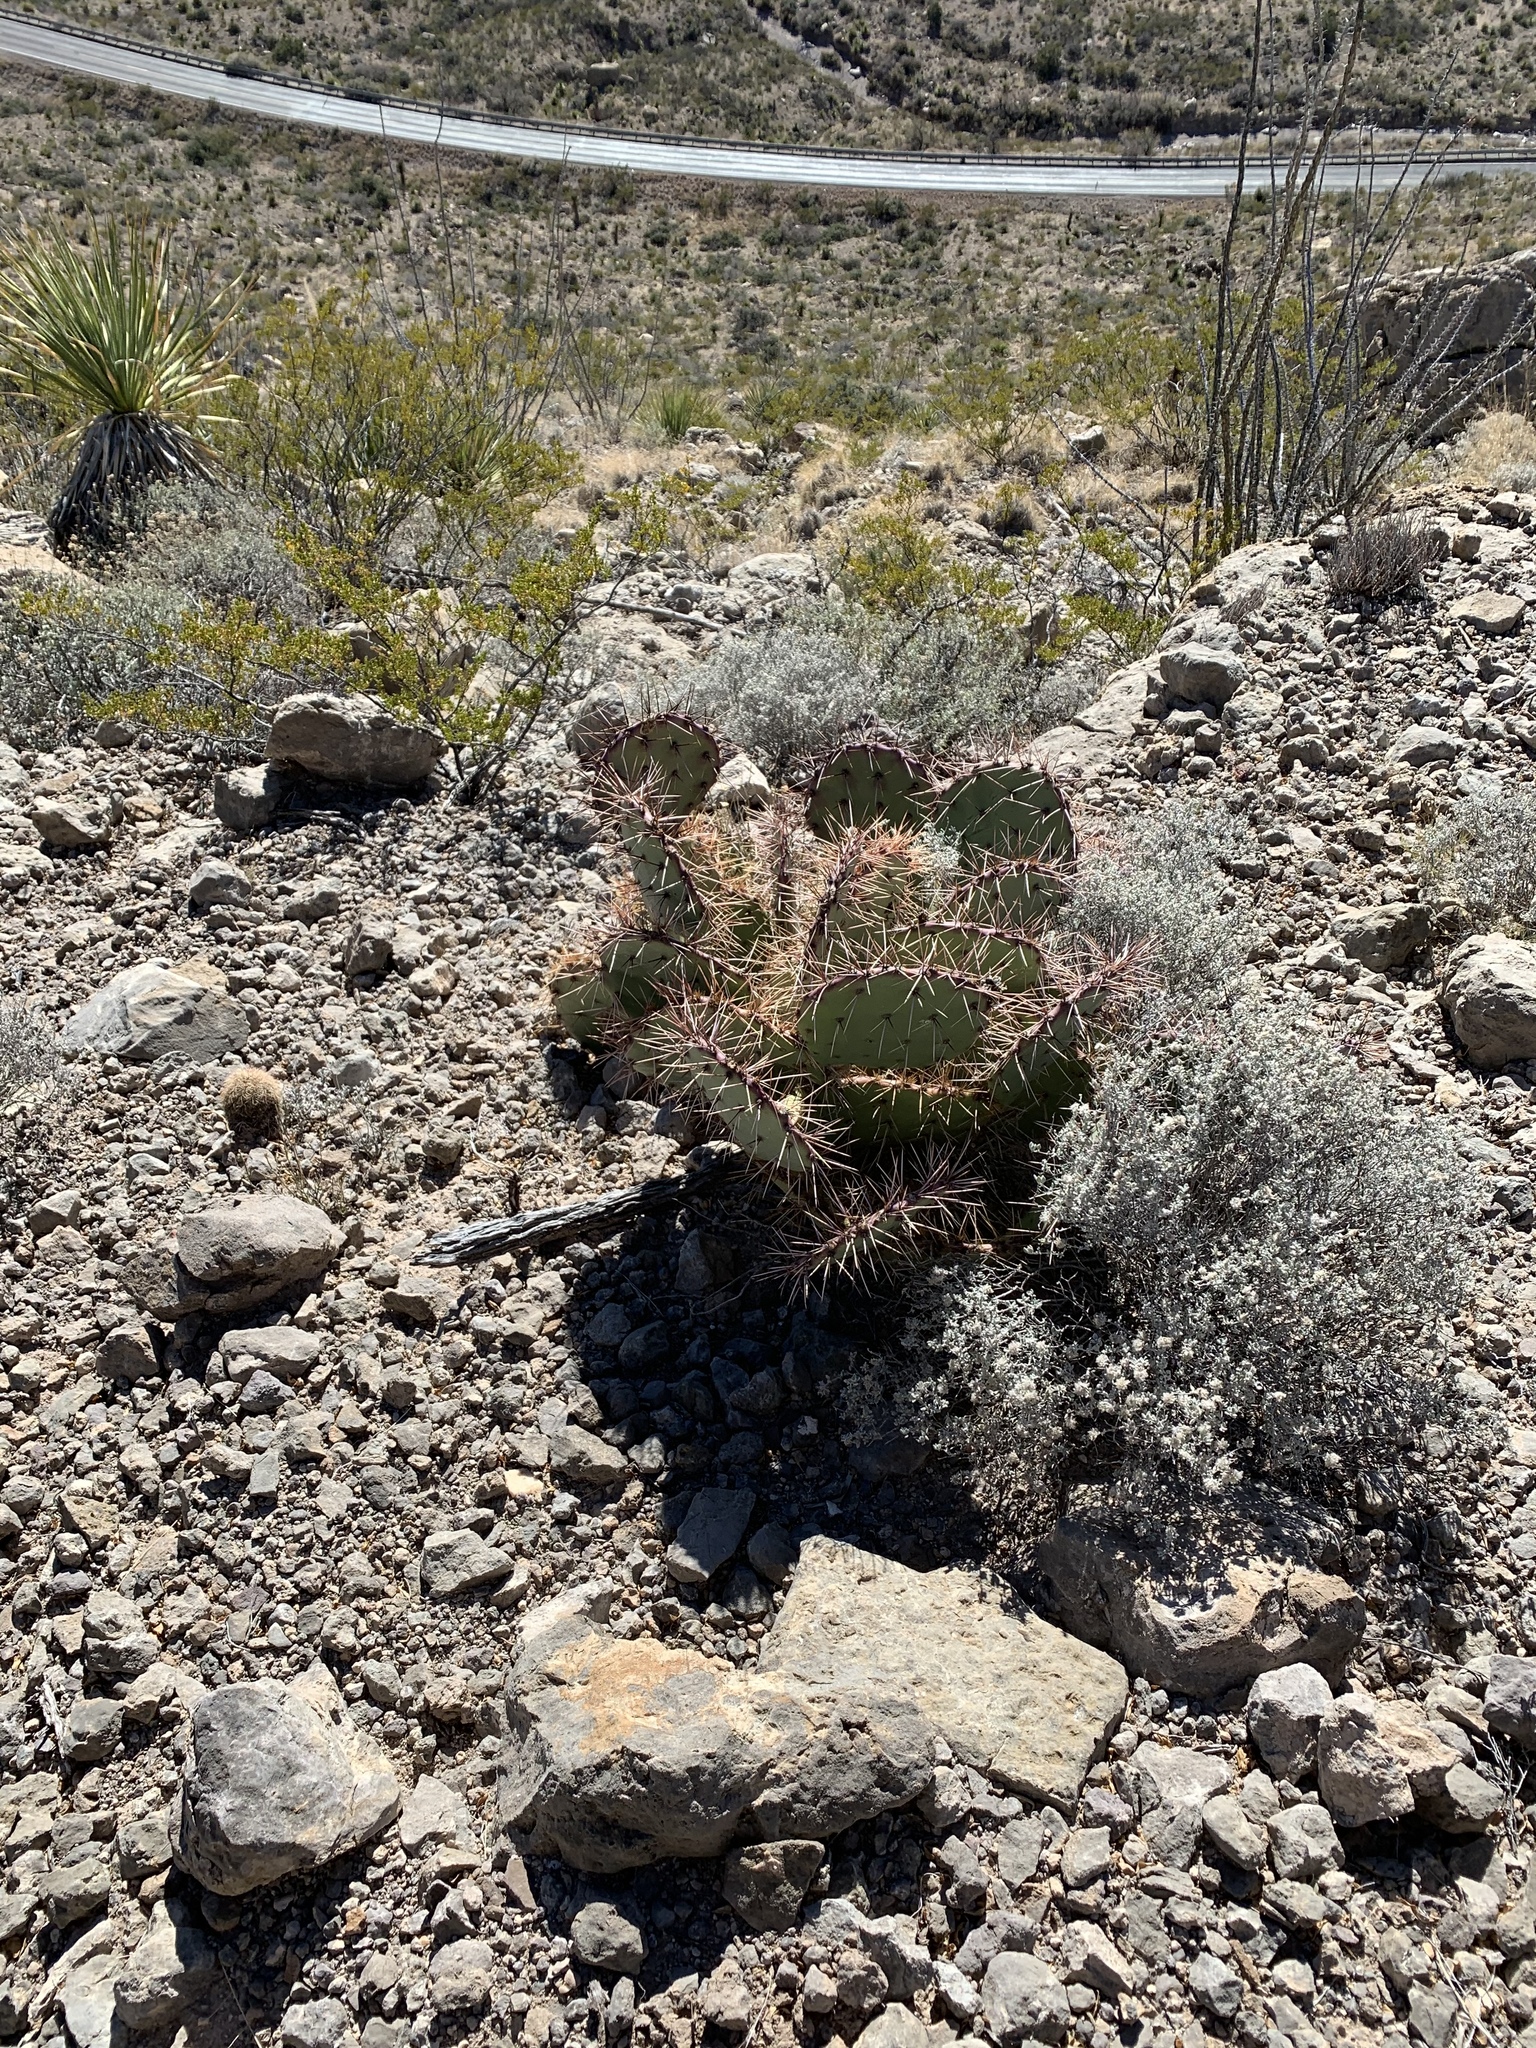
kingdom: Plantae
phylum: Tracheophyta
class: Magnoliopsida
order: Caryophyllales
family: Cactaceae
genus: Opuntia
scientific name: Opuntia macrocentra
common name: Purple prickly-pear
